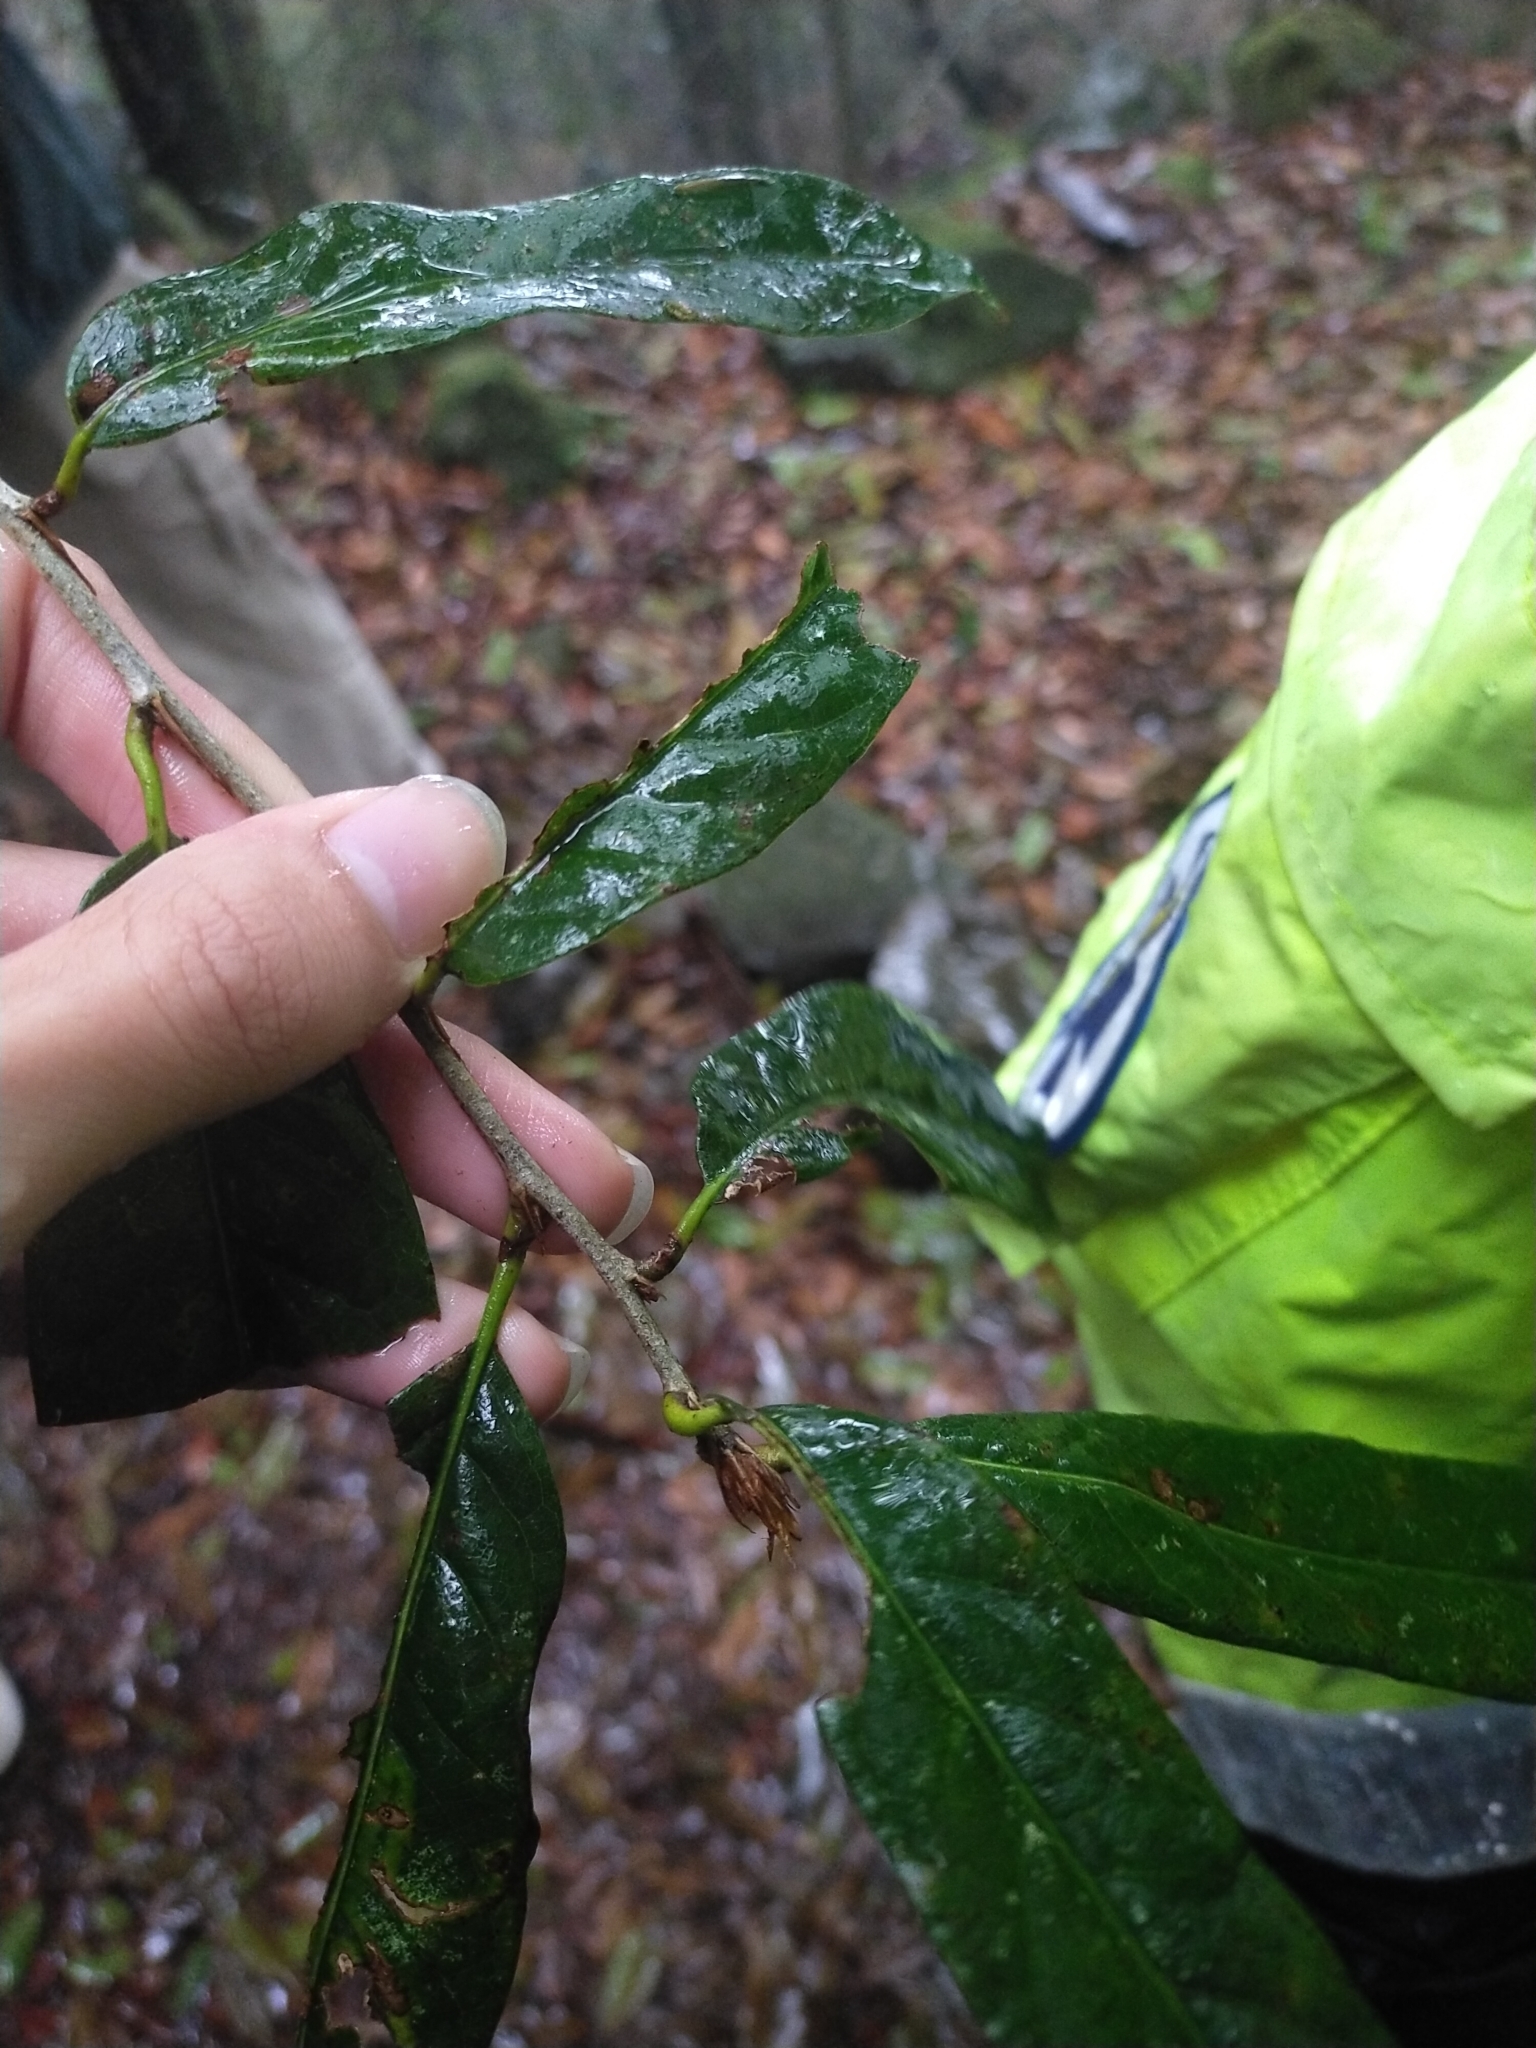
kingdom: Plantae
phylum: Tracheophyta
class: Magnoliopsida
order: Fagales
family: Fagaceae
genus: Quercus
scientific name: Quercus tatakaensis
